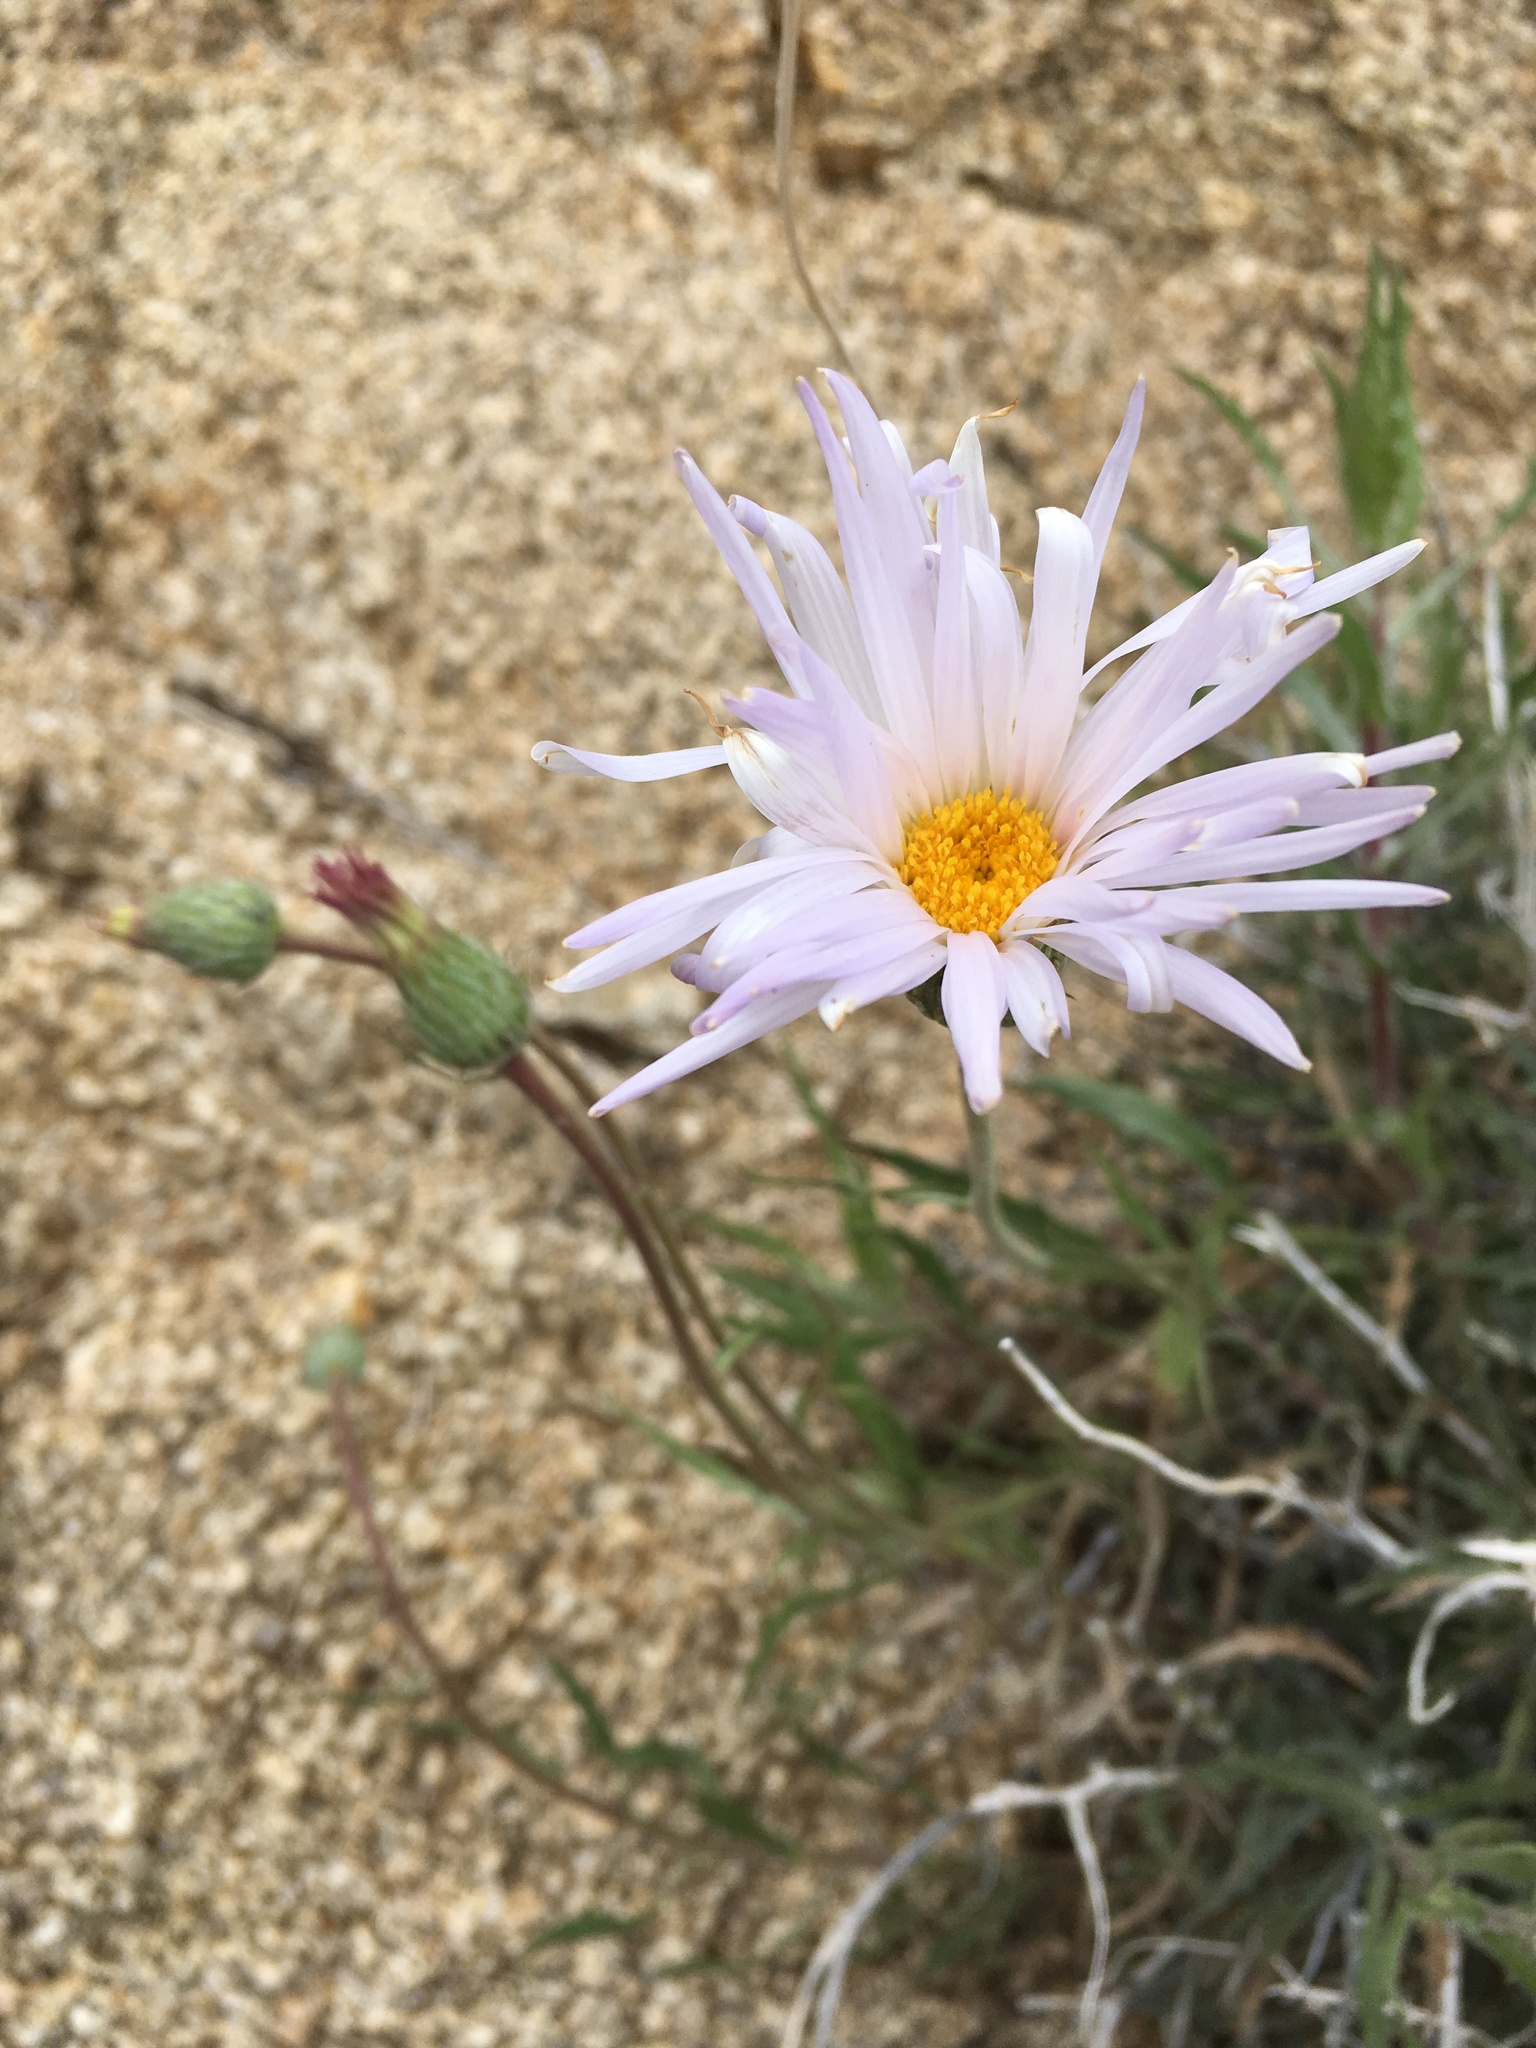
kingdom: Plantae
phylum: Tracheophyta
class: Magnoliopsida
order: Asterales
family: Asteraceae
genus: Xylorhiza
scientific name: Xylorhiza tortifolia
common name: Hurt-leaf woody-aster
